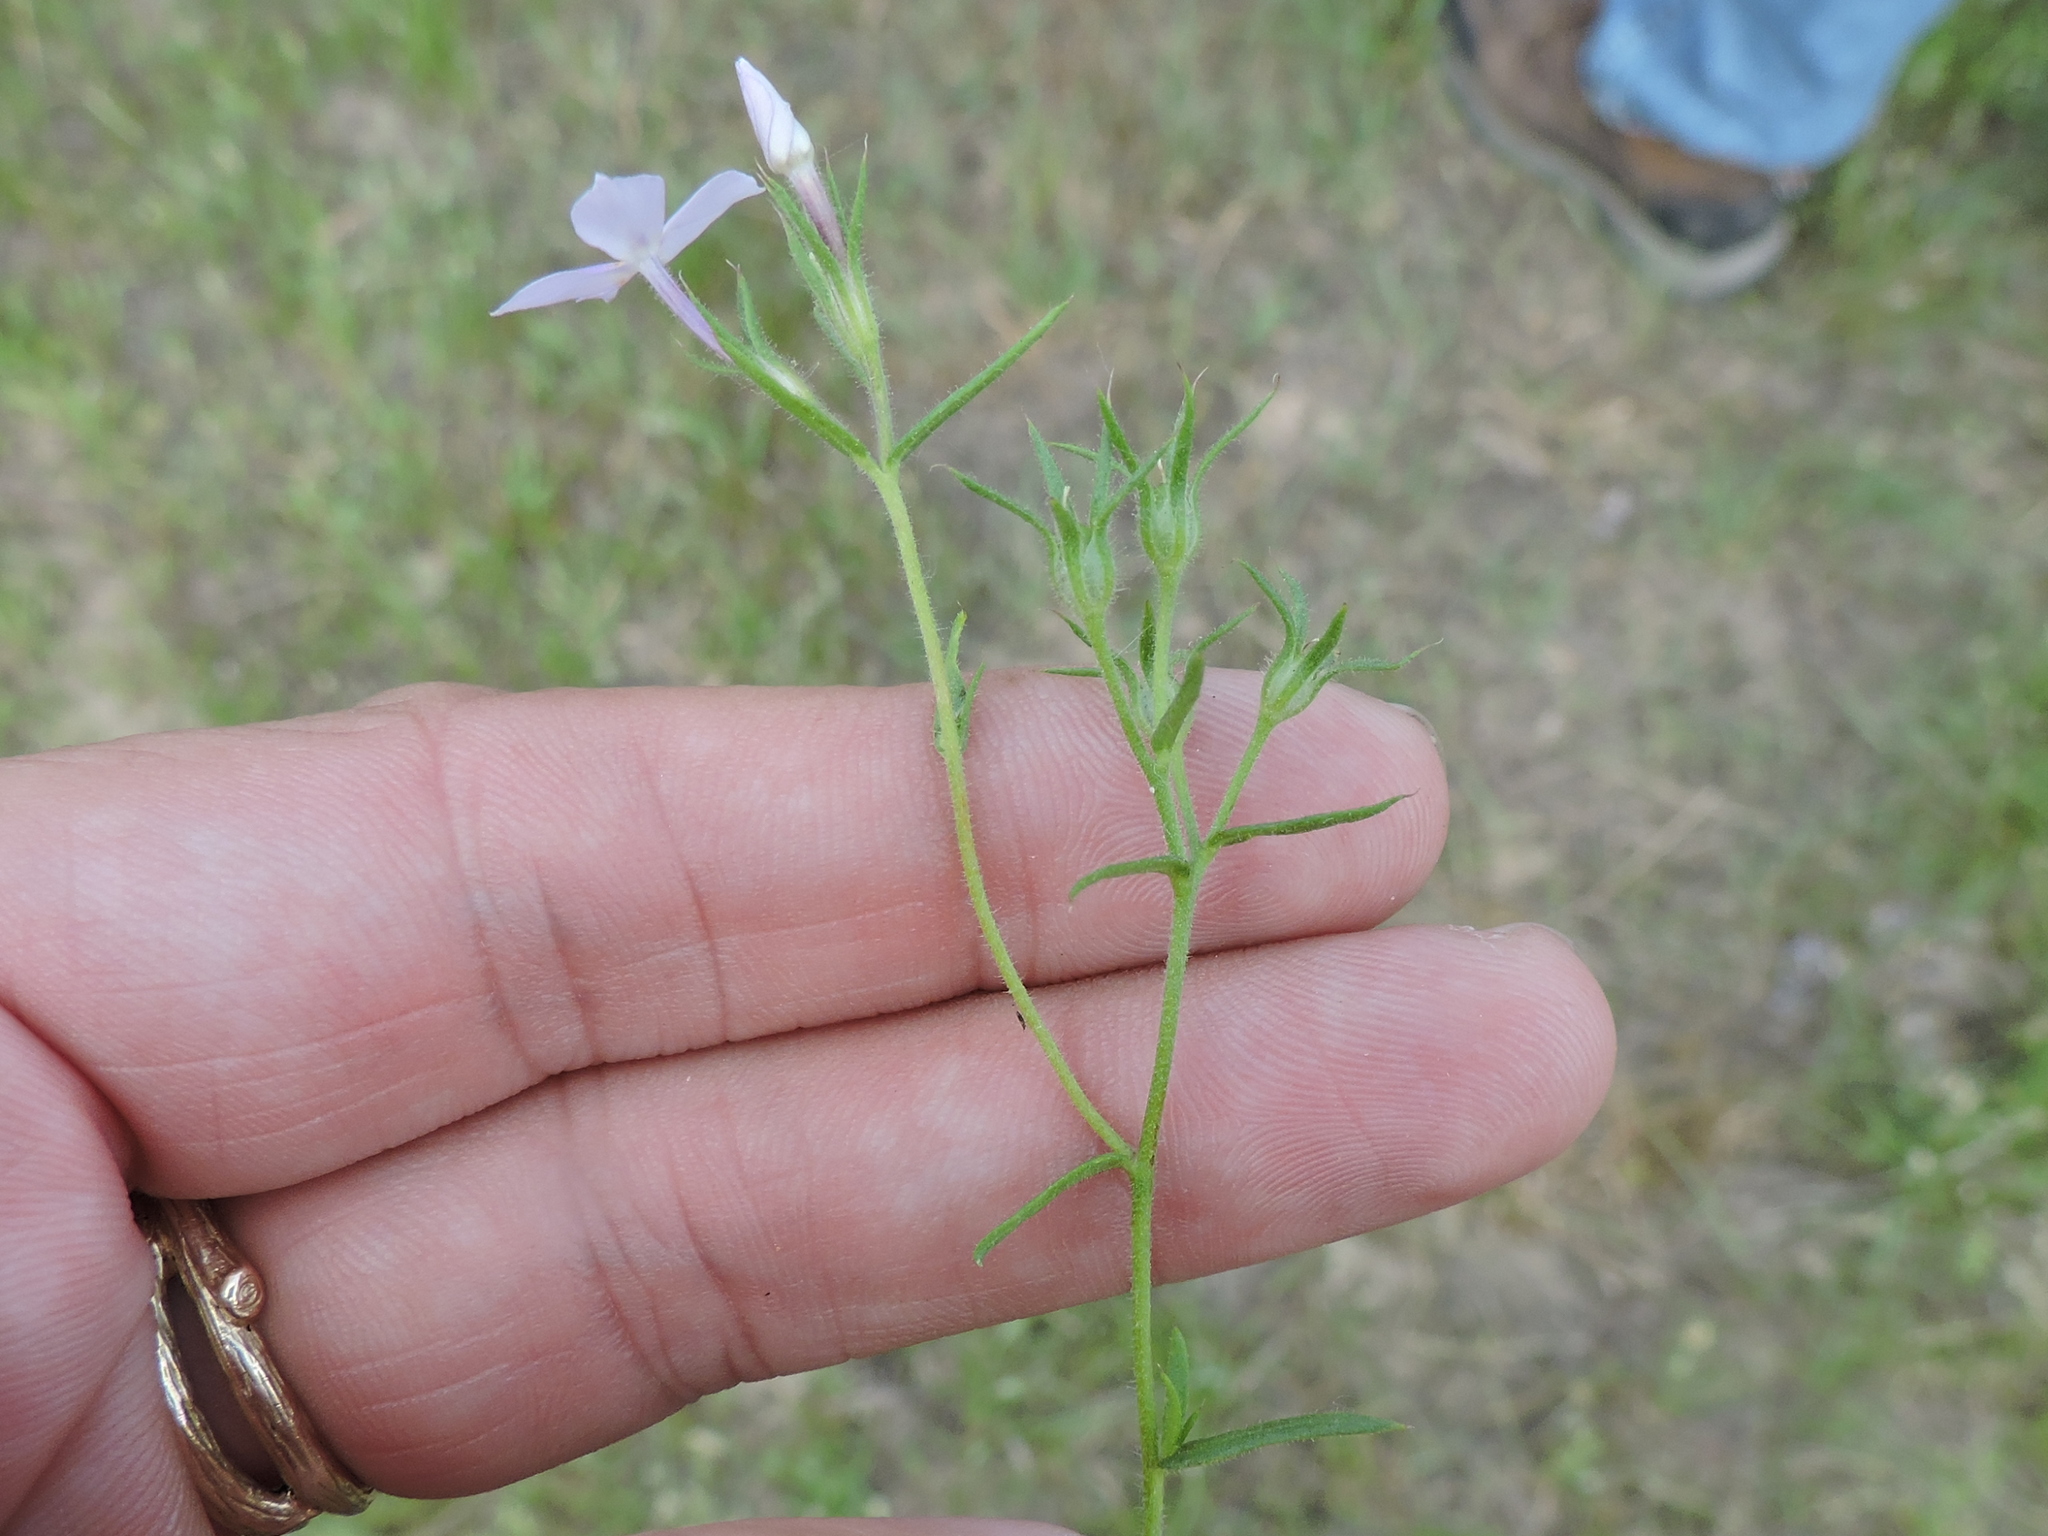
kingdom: Plantae
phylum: Tracheophyta
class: Magnoliopsida
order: Ericales
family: Polemoniaceae
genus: Phlox
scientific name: Phlox cuspidata
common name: Pointed phlox
